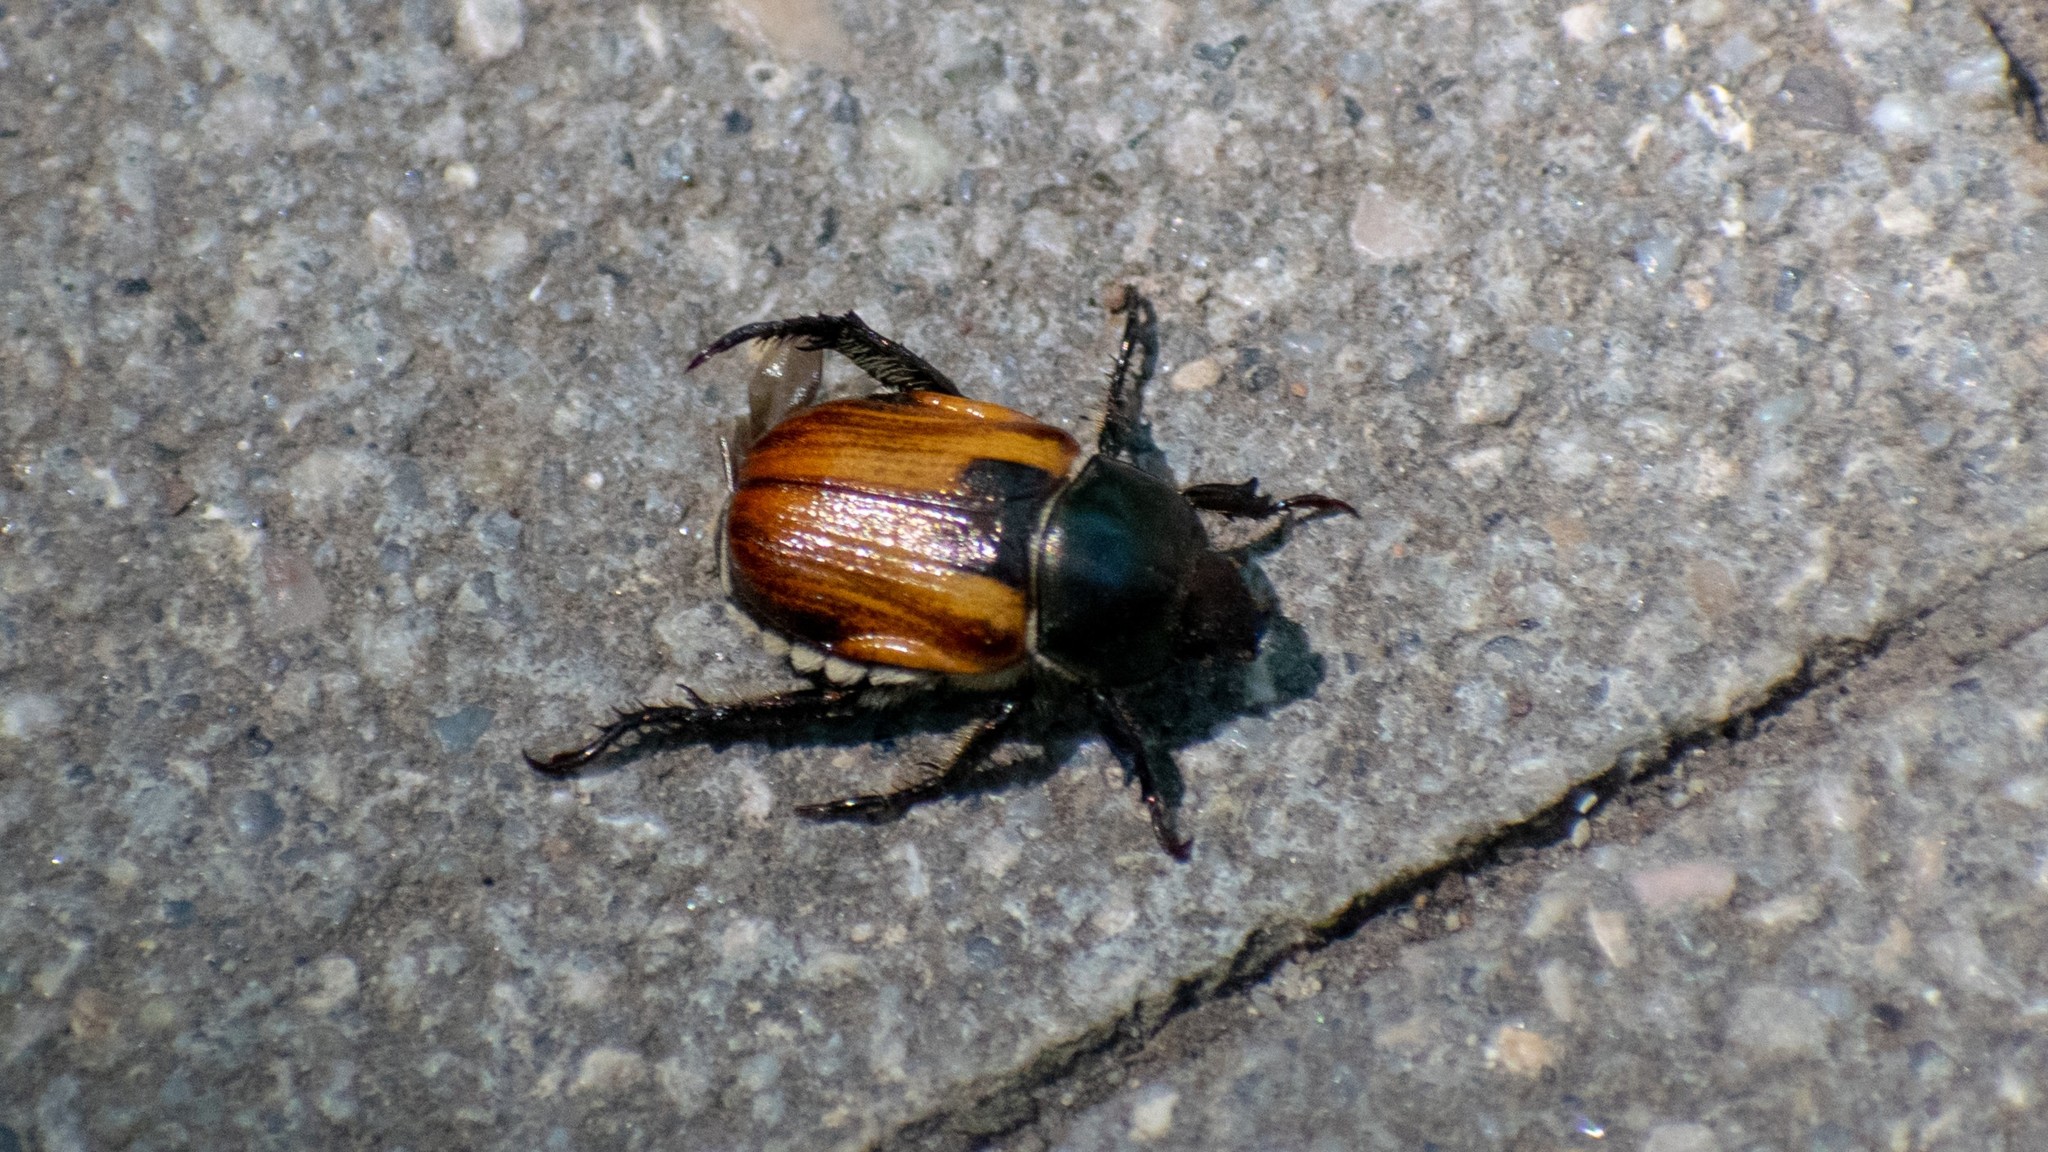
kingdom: Animalia
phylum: Arthropoda
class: Insecta
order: Coleoptera
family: Scarabaeidae
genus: Anisoplia
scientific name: Anisoplia austriaca
